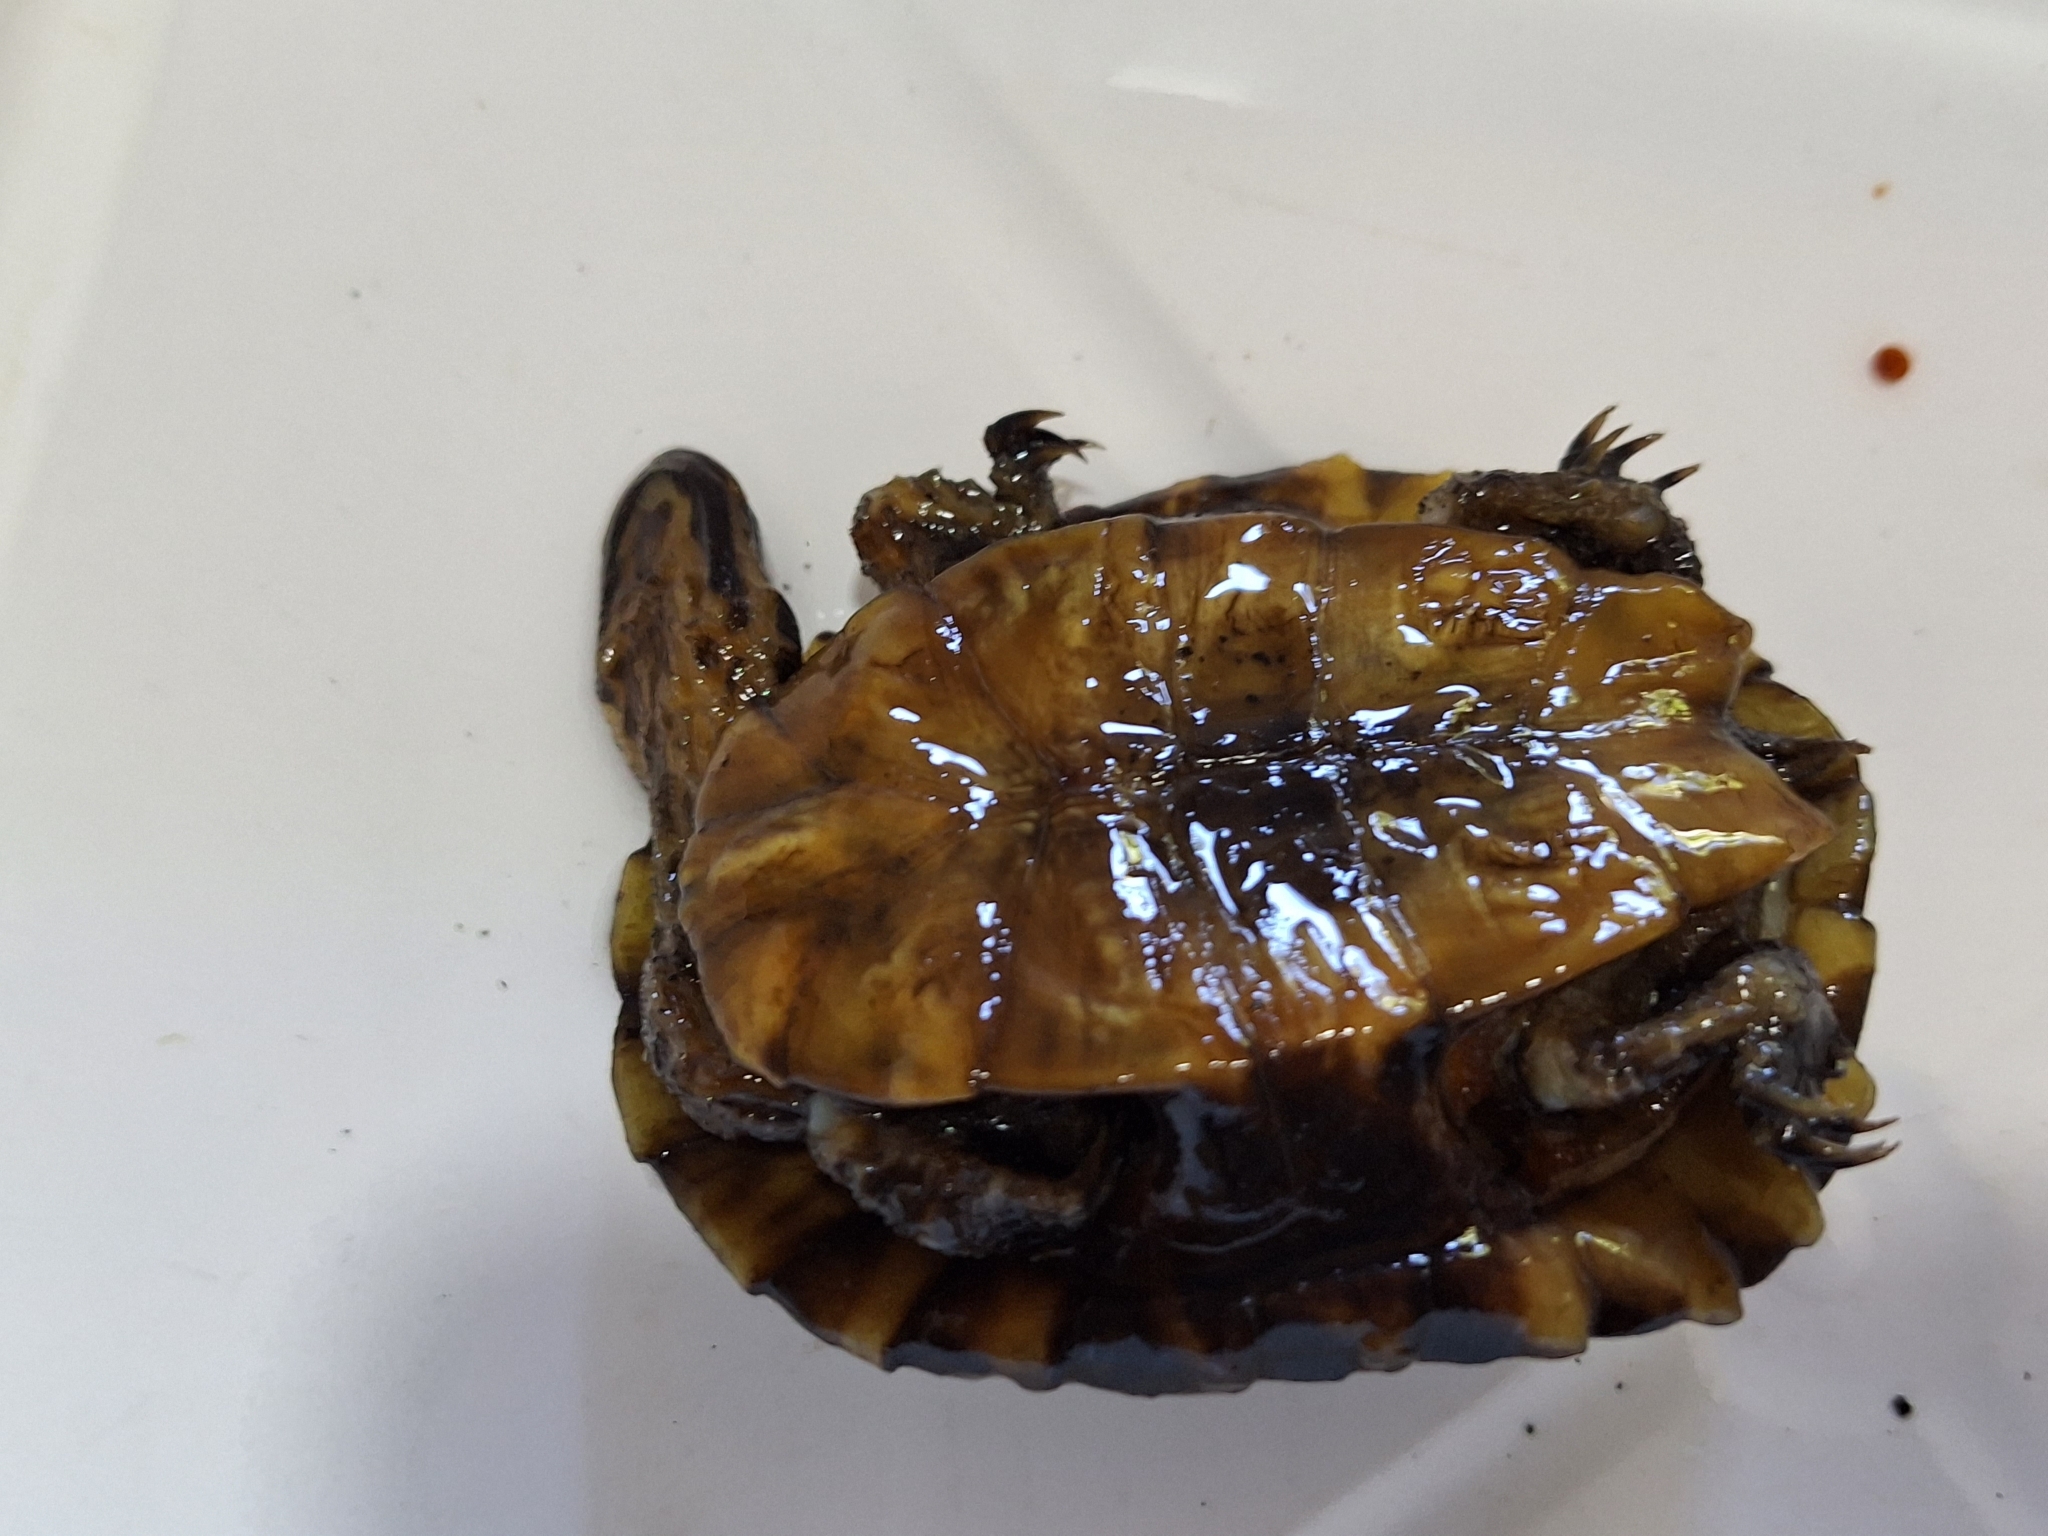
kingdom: Animalia
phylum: Chordata
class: Testudines
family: Chelidae
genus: Hydromedusa
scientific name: Hydromedusa tectifera
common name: Argentine snake-necked turtle
